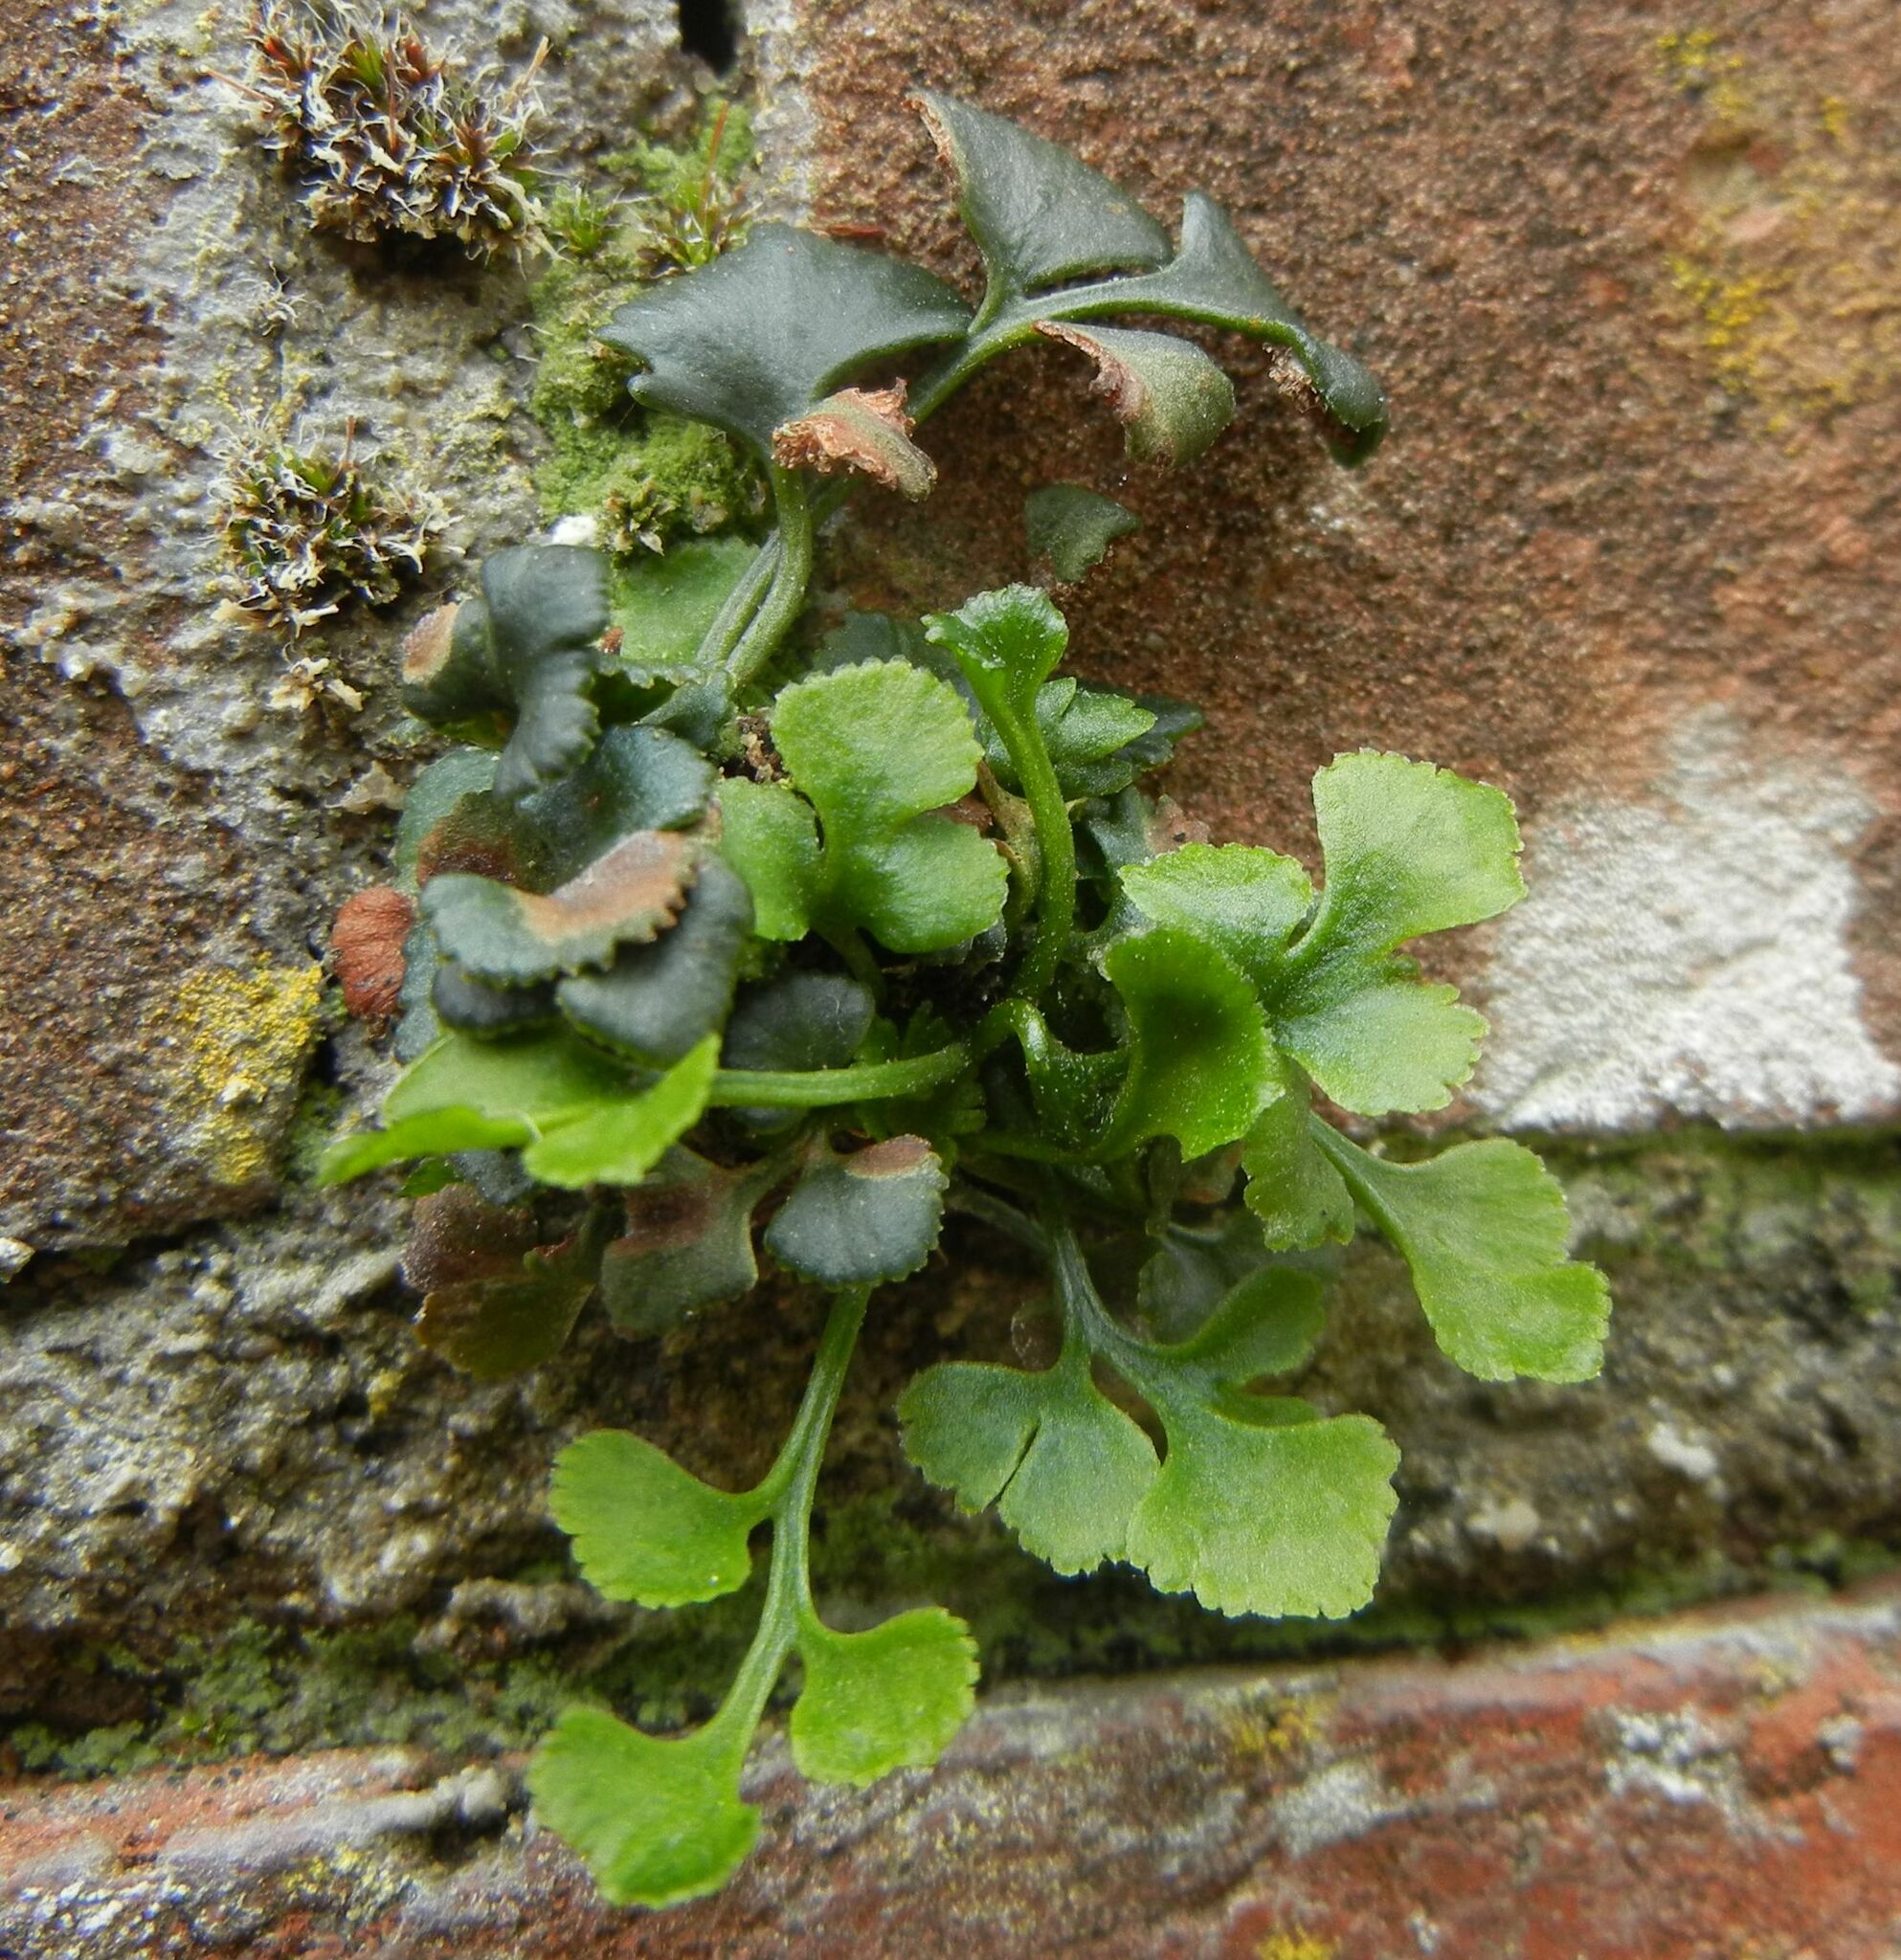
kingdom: Plantae
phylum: Tracheophyta
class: Polypodiopsida
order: Polypodiales
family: Aspleniaceae
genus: Asplenium
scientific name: Asplenium ruta-muraria
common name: Wall-rue
